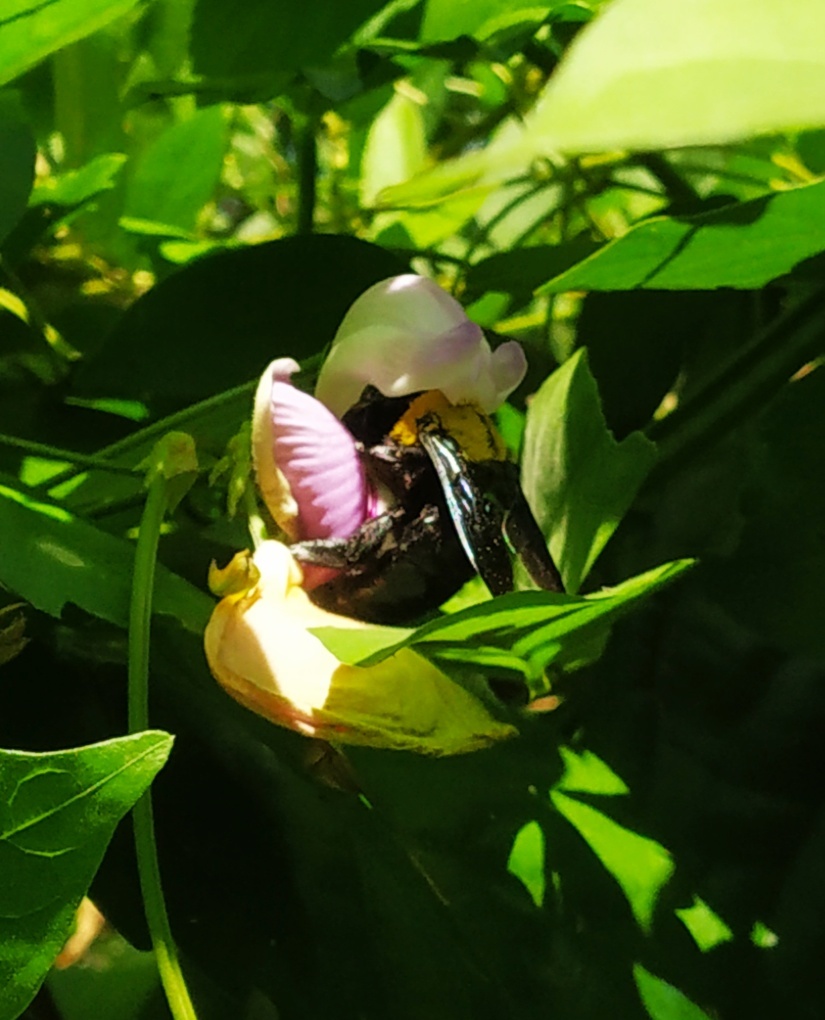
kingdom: Animalia
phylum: Arthropoda
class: Insecta
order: Hymenoptera
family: Apidae
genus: Xylocopa
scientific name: Xylocopa ruficornis
